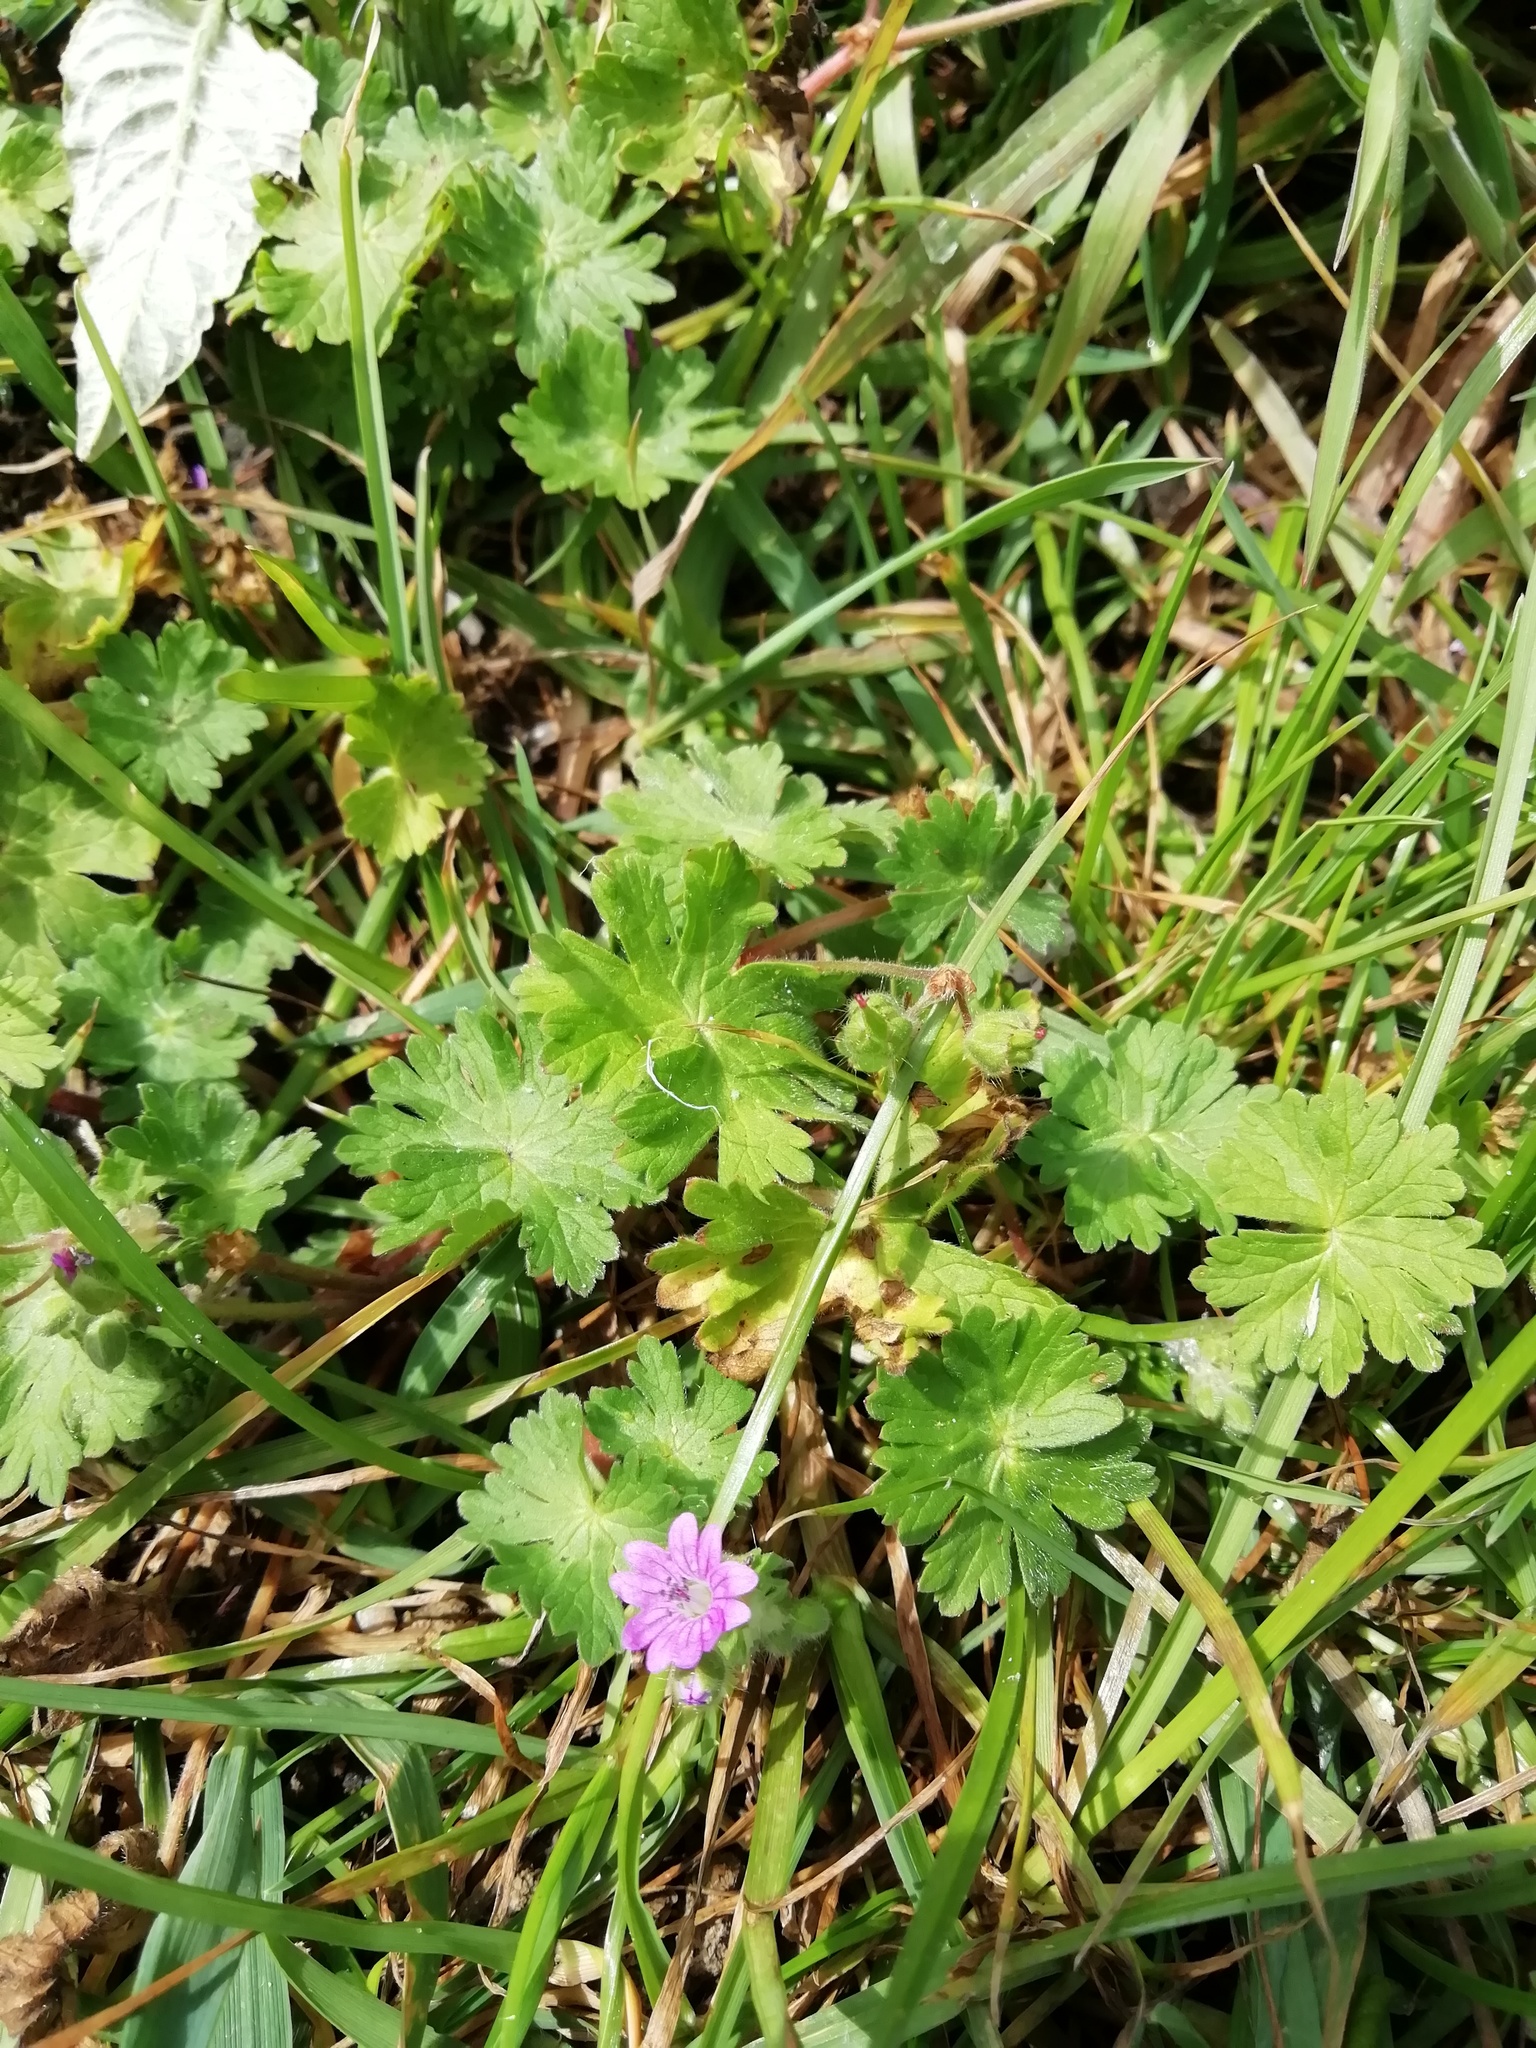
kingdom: Plantae
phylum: Tracheophyta
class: Magnoliopsida
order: Geraniales
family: Geraniaceae
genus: Geranium
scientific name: Geranium molle
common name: Dove's-foot crane's-bill
